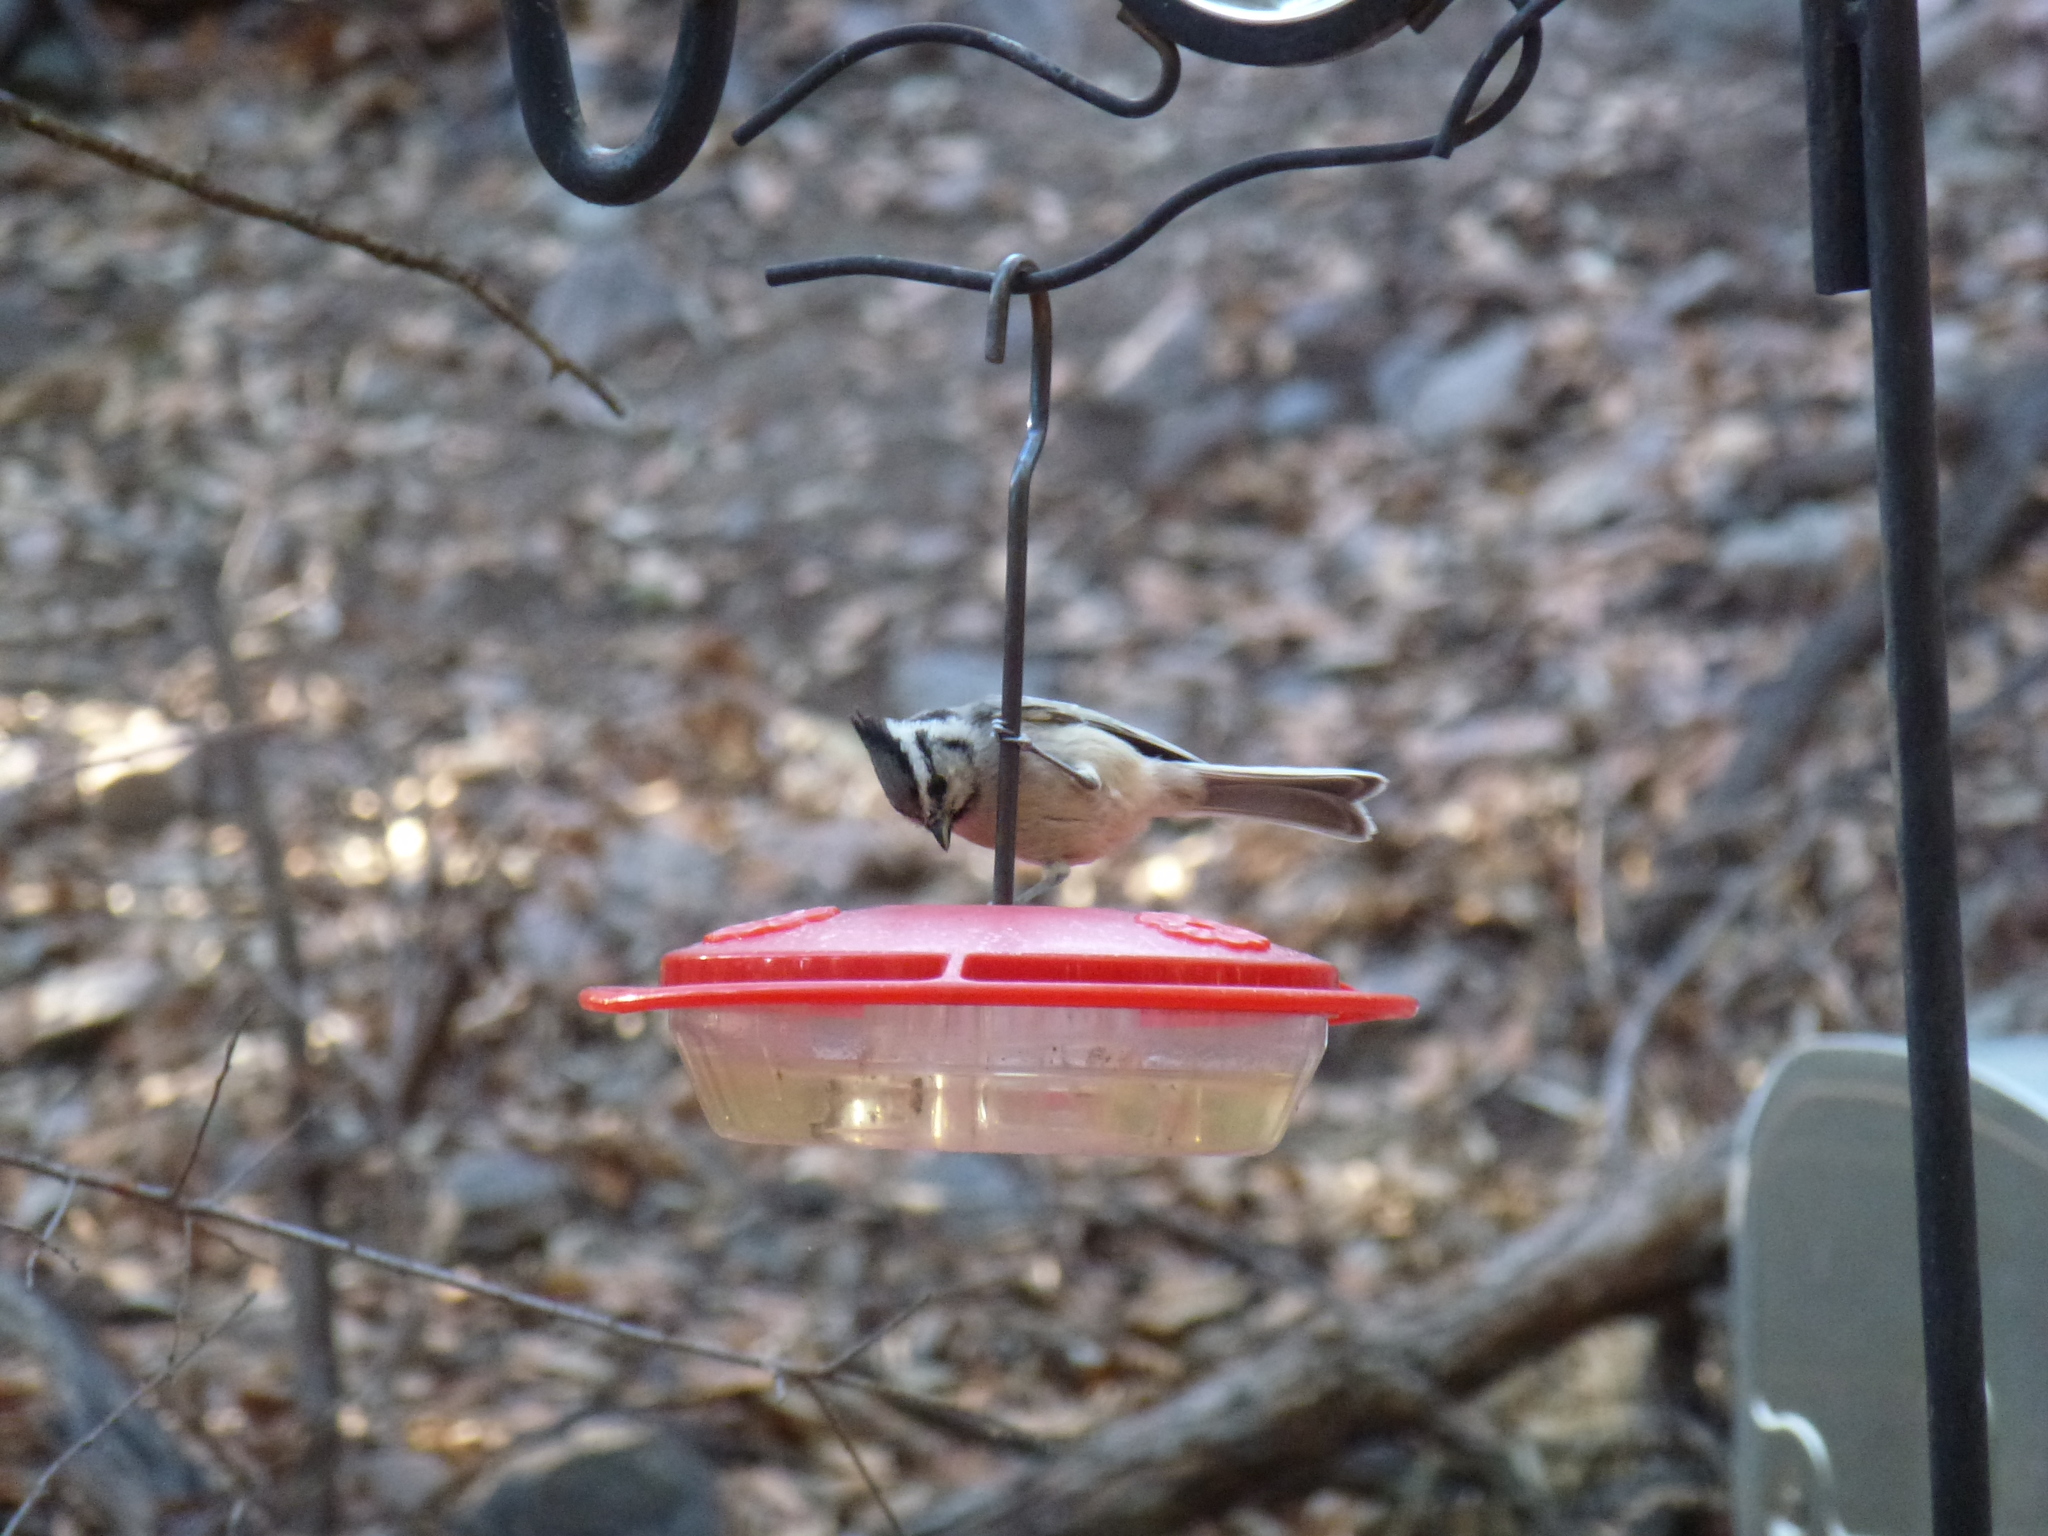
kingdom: Animalia
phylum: Chordata
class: Aves
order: Passeriformes
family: Paridae
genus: Baeolophus
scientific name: Baeolophus wollweberi
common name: Bridled titmouse
